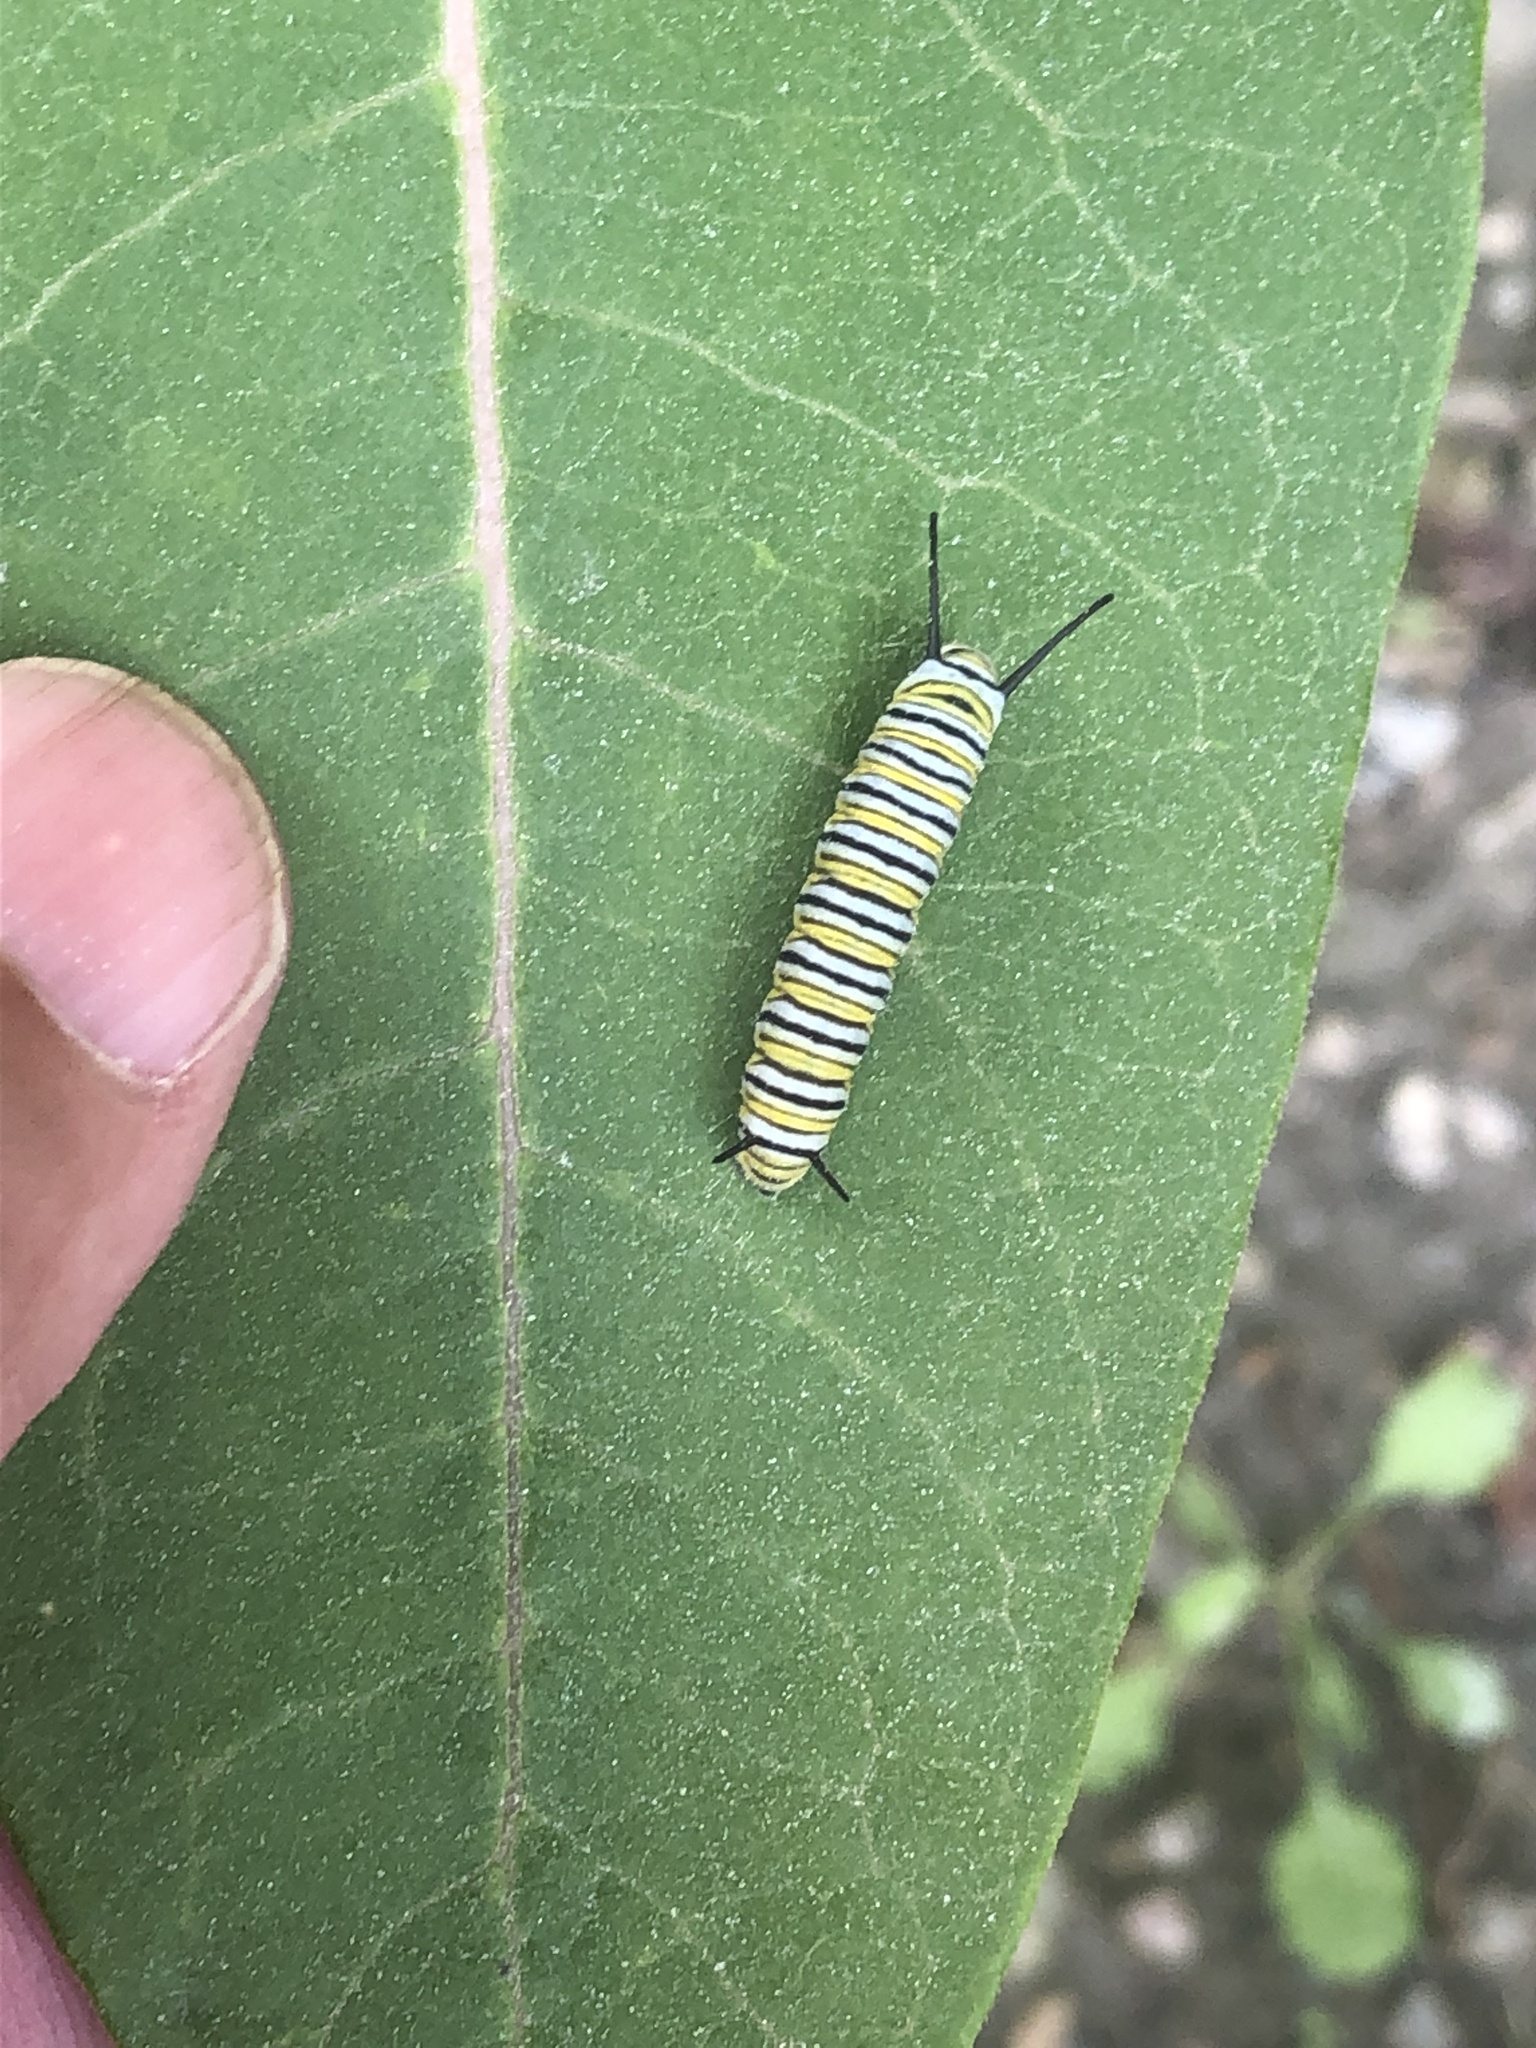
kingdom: Animalia
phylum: Arthropoda
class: Insecta
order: Lepidoptera
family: Nymphalidae
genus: Danaus
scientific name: Danaus plexippus
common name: Monarch
